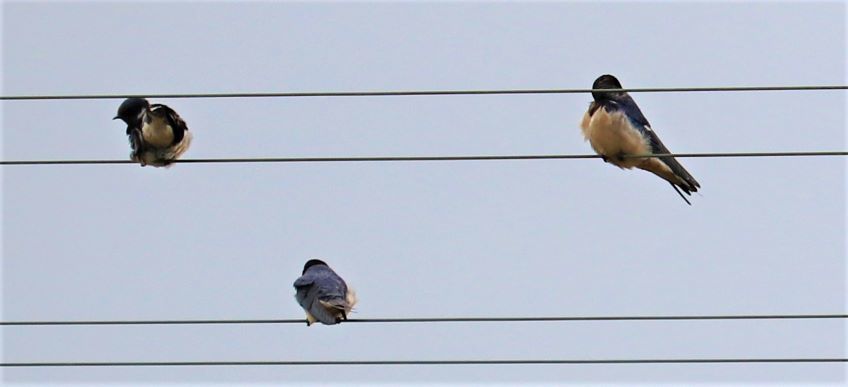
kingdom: Animalia
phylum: Chordata
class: Aves
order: Passeriformes
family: Hirundinidae
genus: Hirundo
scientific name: Hirundo rustica
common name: Barn swallow
